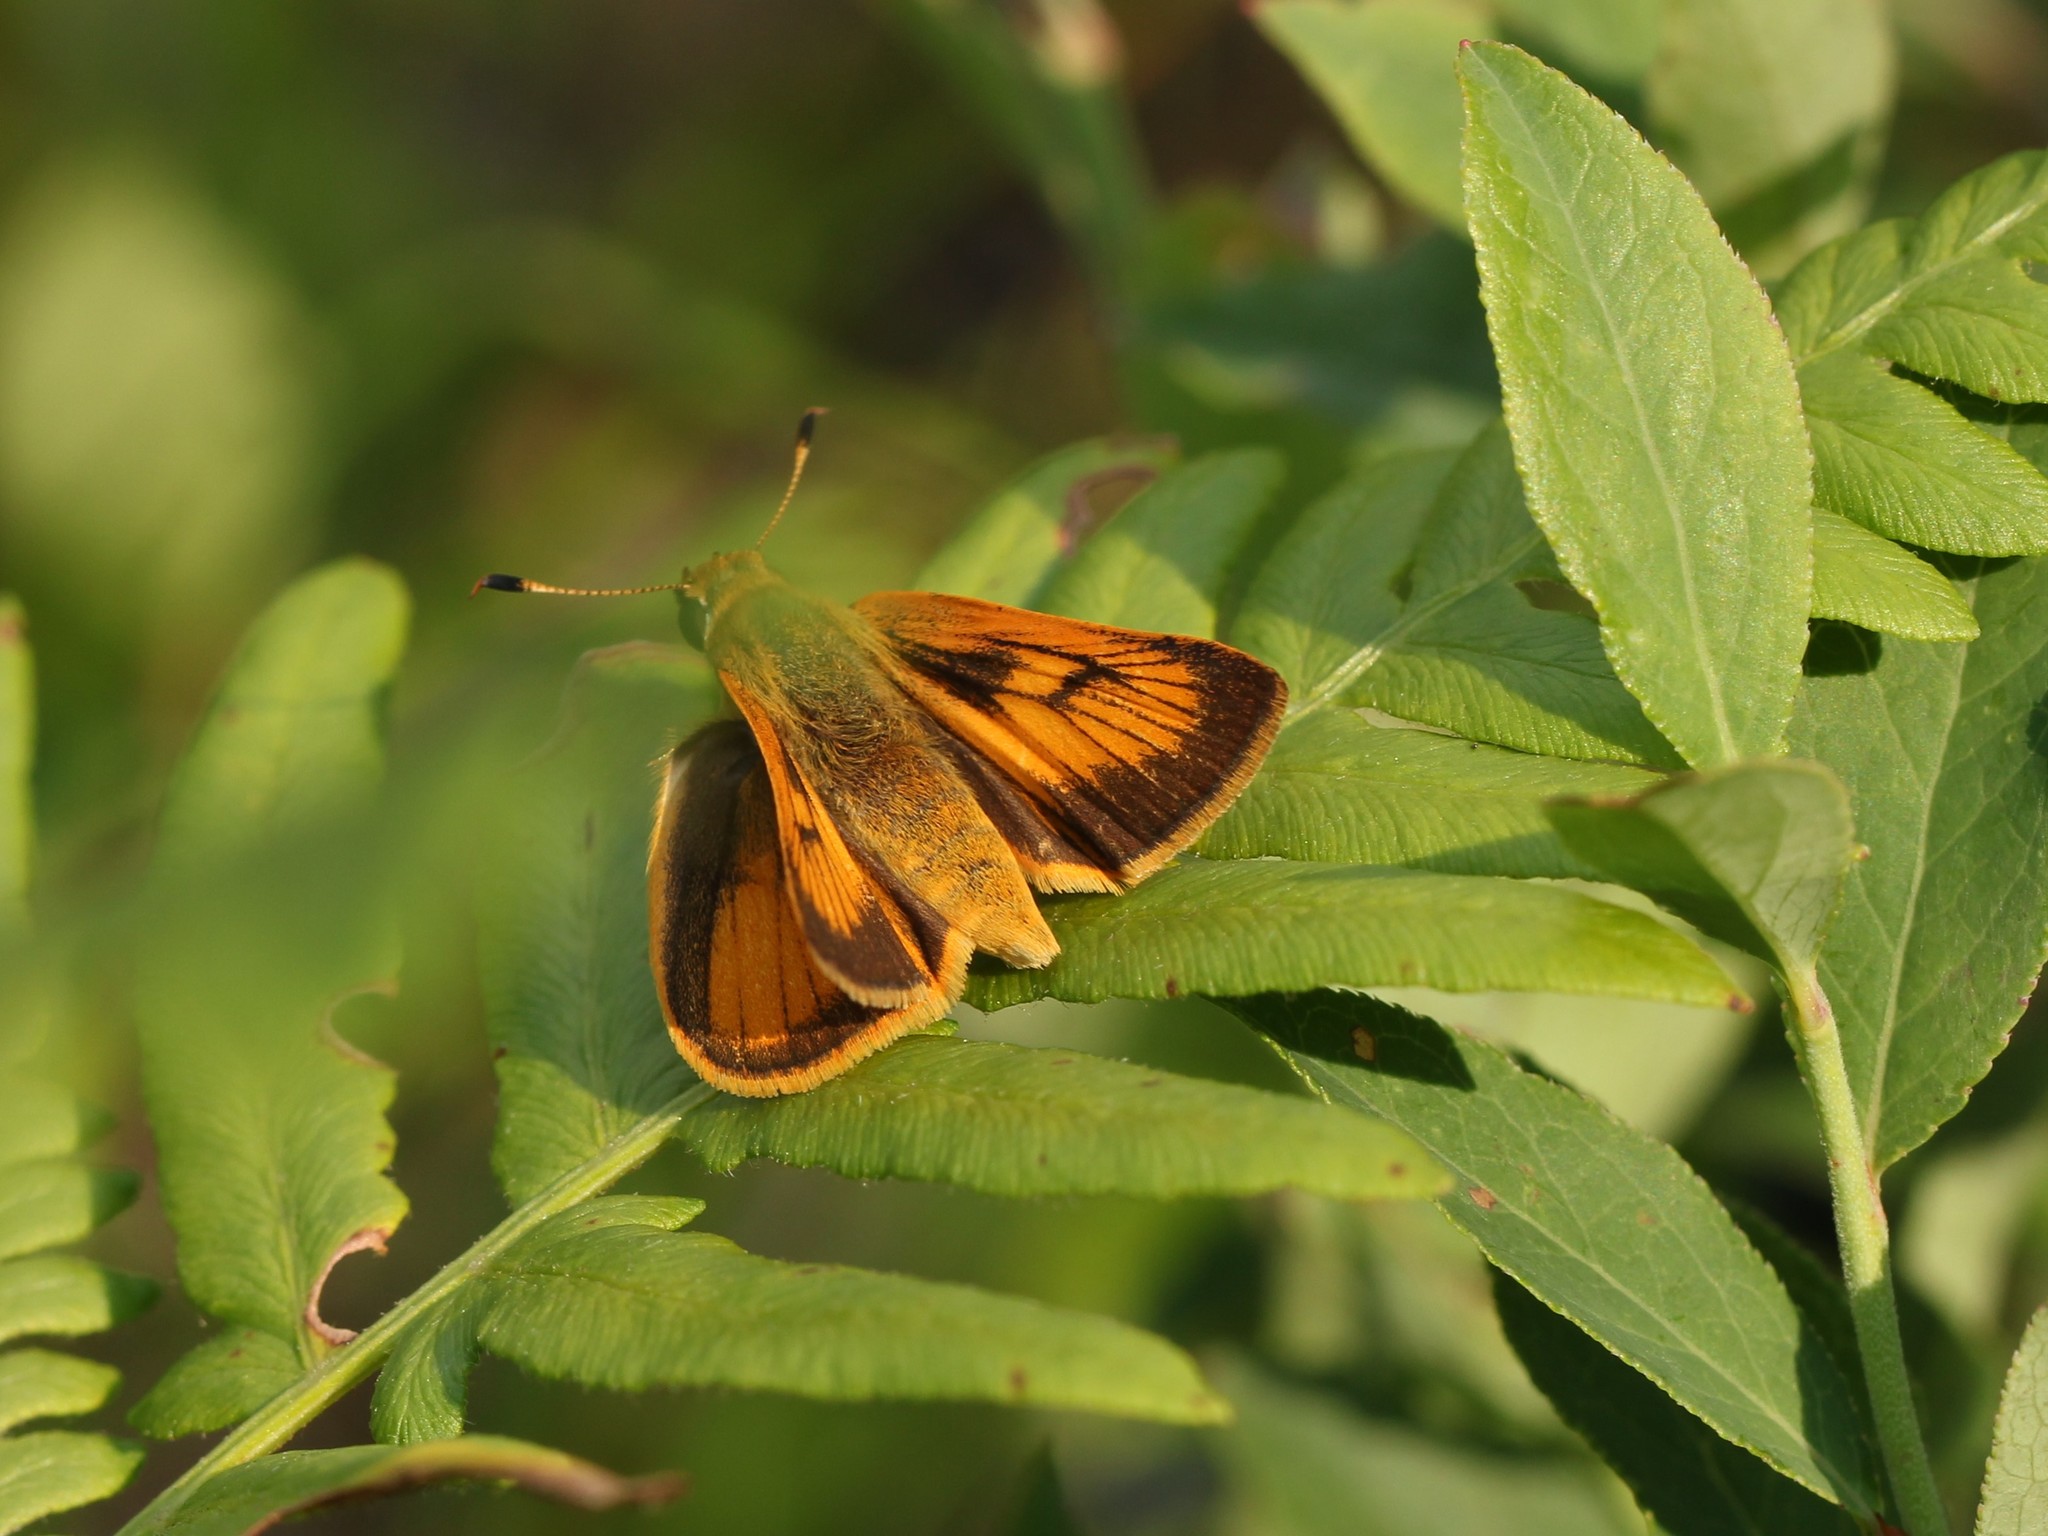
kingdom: Animalia
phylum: Arthropoda
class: Insecta
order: Lepidoptera
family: Hesperiidae
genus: Atrytone
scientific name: Atrytone delaware
